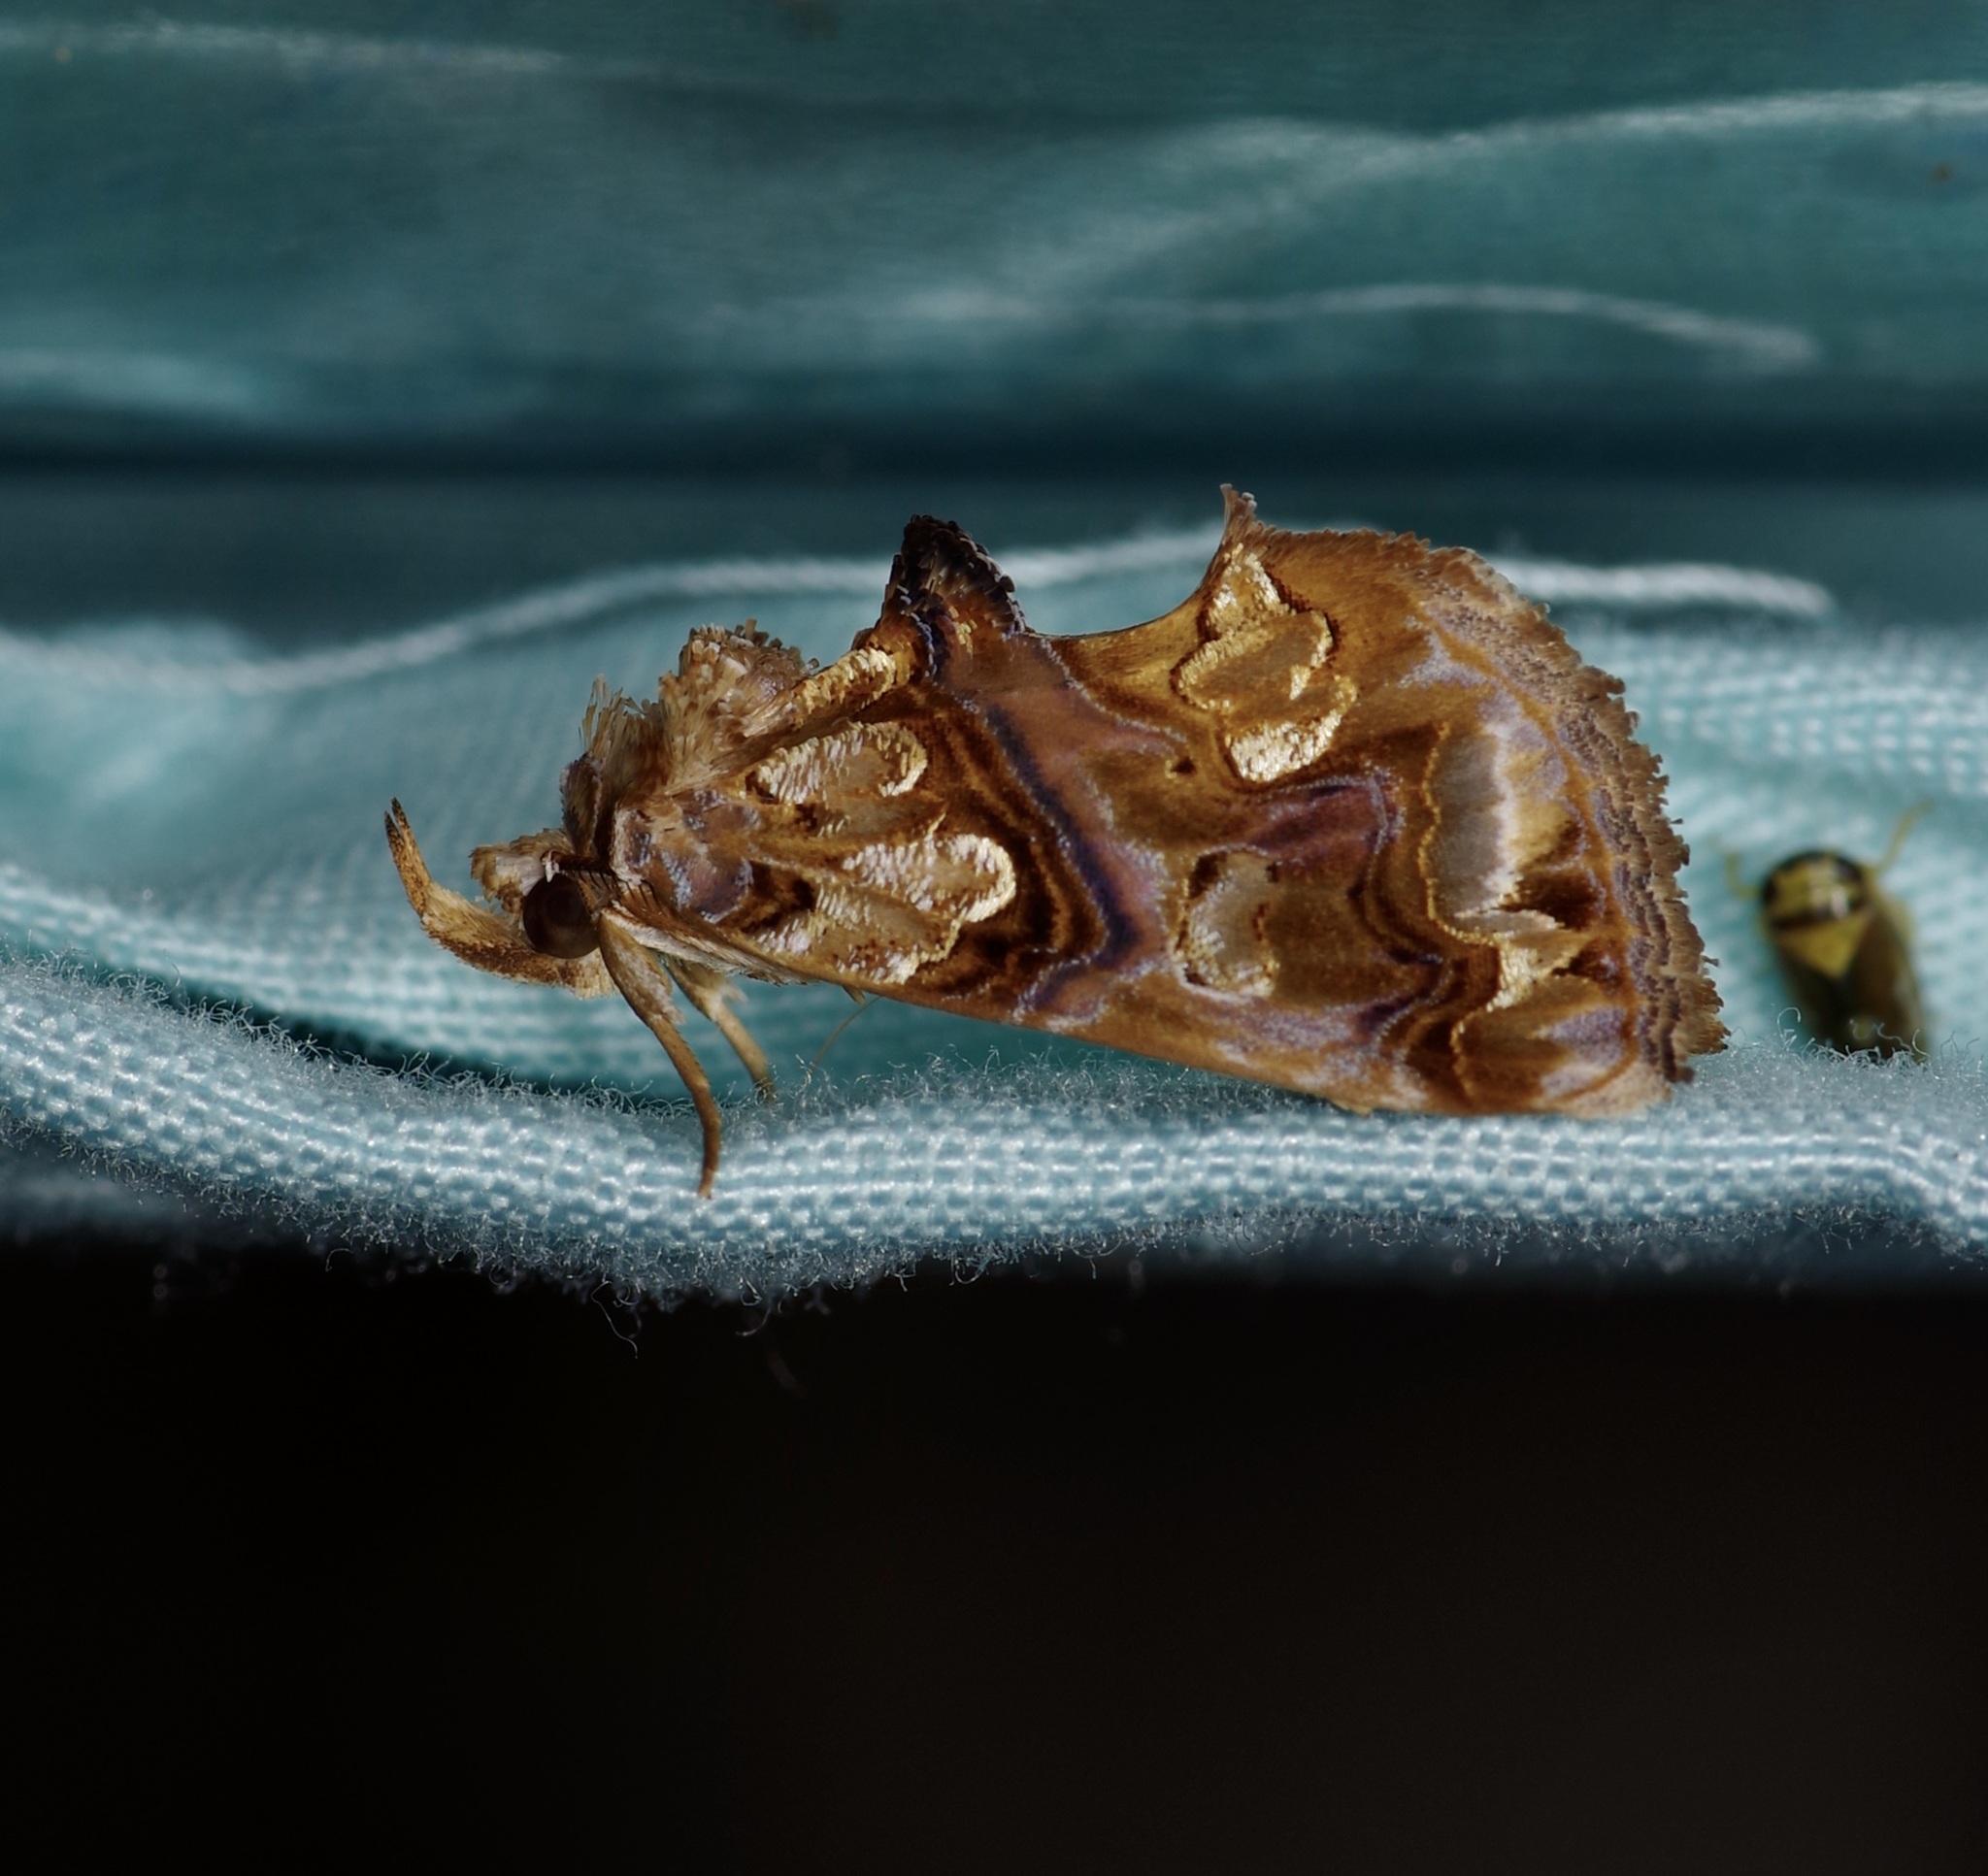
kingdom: Animalia
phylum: Arthropoda
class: Insecta
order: Lepidoptera
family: Erebidae
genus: Plusiodonta
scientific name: Plusiodonta compressipalpis
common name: Moonseed moth
